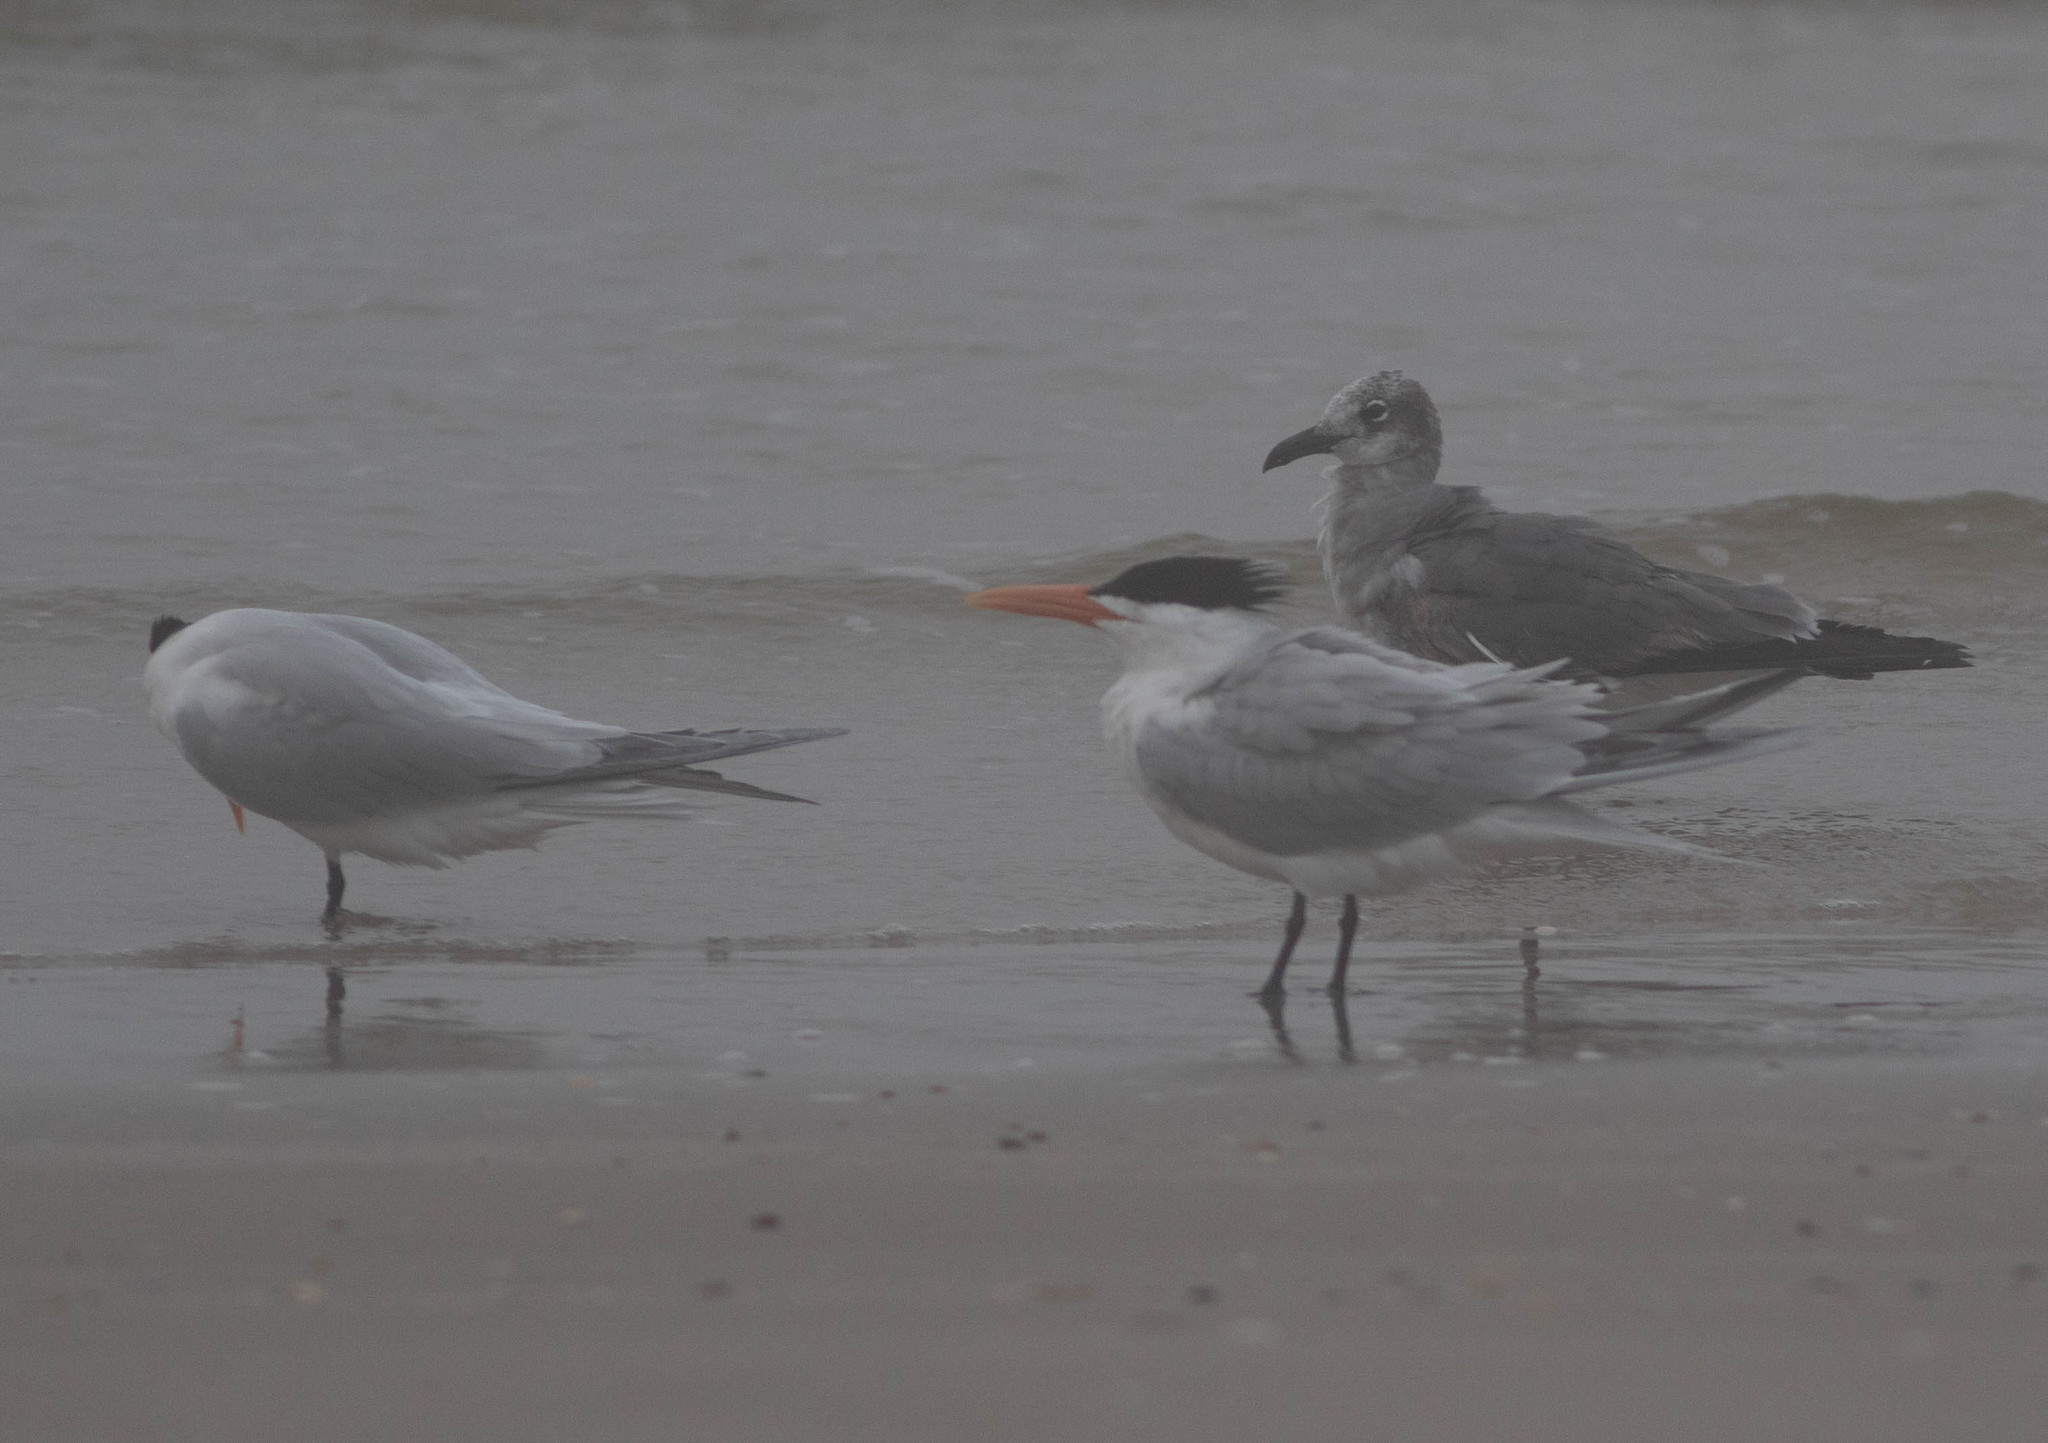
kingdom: Animalia
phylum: Chordata
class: Aves
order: Charadriiformes
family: Laridae
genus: Thalasseus
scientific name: Thalasseus maximus
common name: Royal tern
